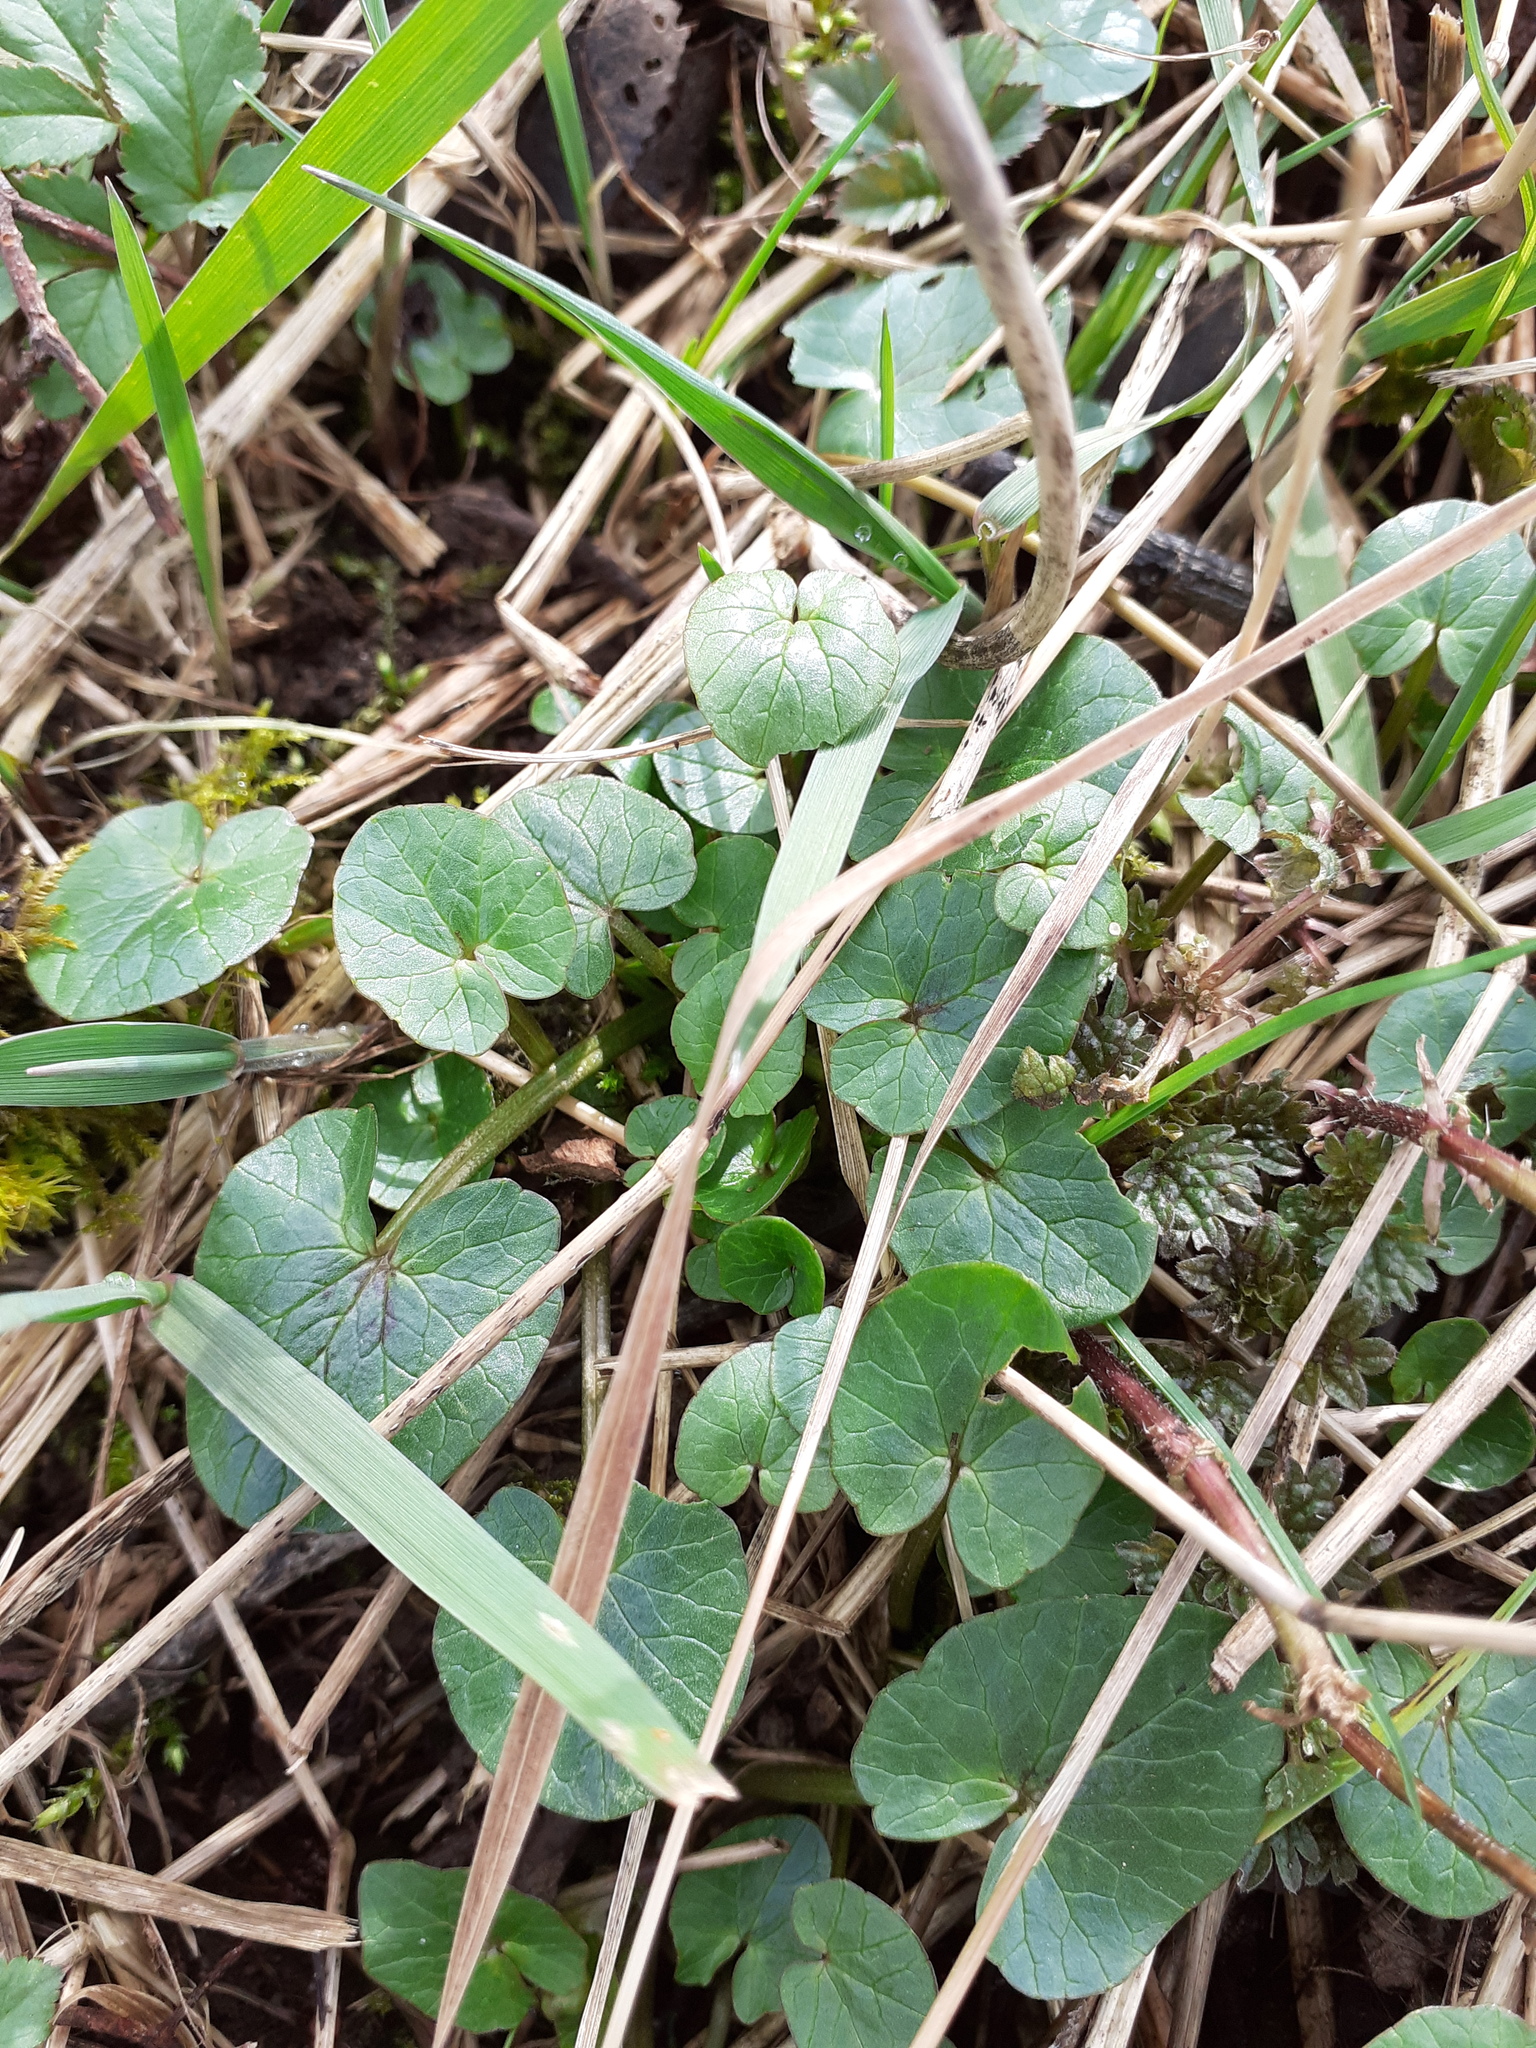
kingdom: Plantae
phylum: Tracheophyta
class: Magnoliopsida
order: Ranunculales
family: Ranunculaceae
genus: Ficaria
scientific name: Ficaria verna
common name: Lesser celandine
